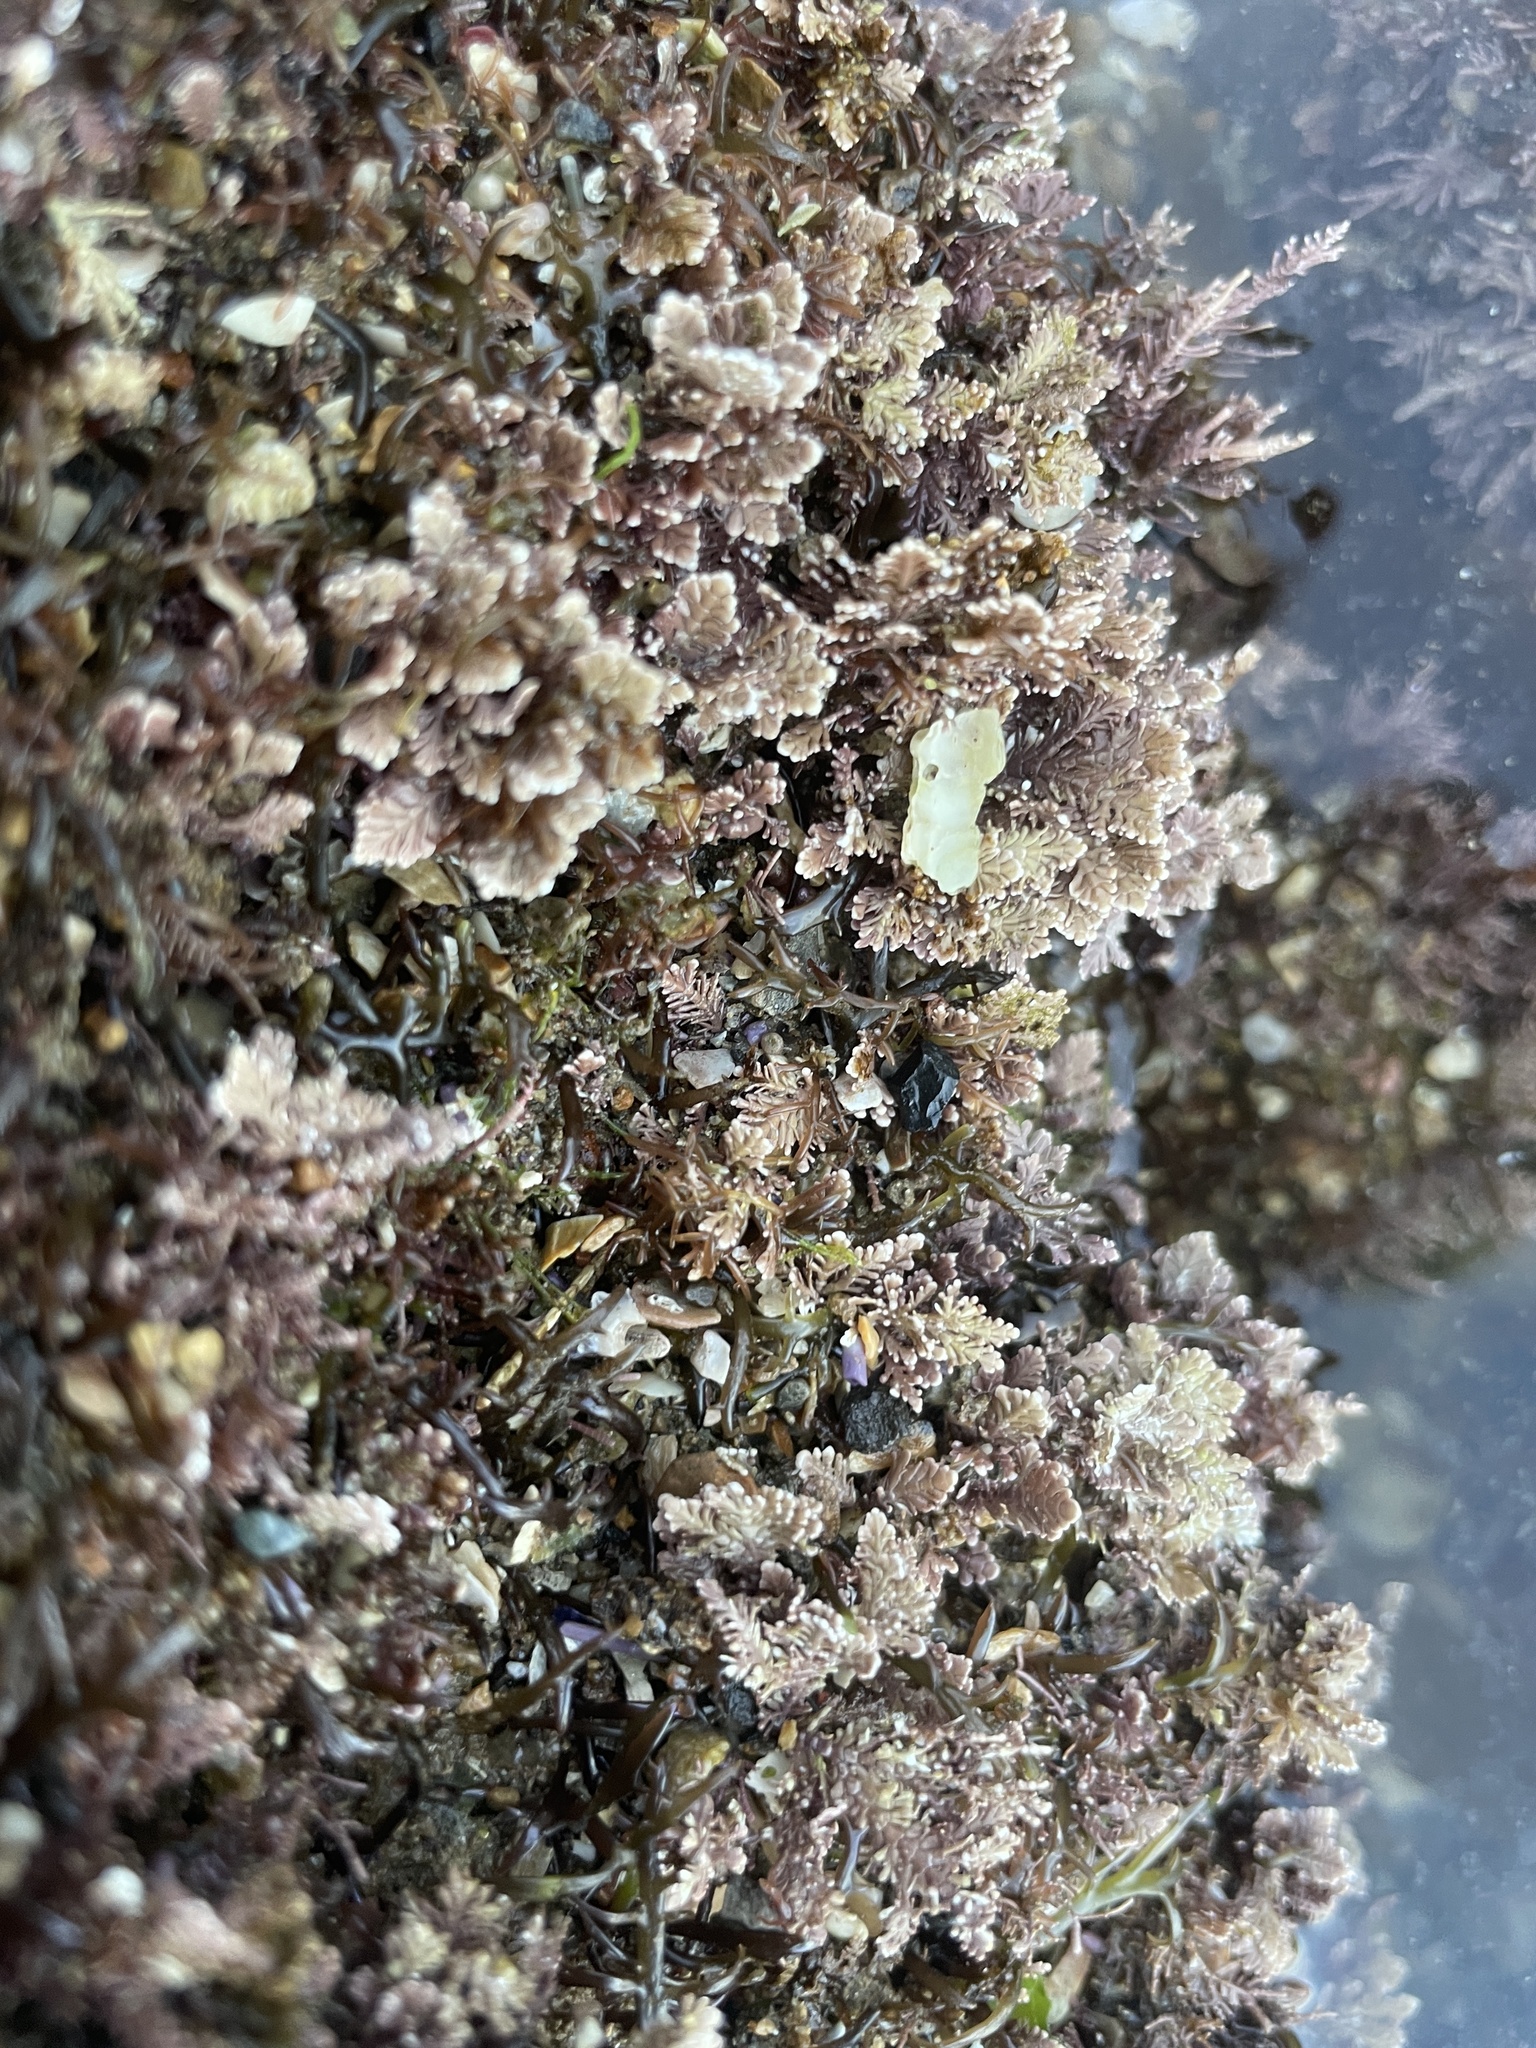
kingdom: Plantae
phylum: Rhodophyta
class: Florideophyceae
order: Corallinales
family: Corallinaceae
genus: Corallina
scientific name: Corallina officinalis
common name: Coral weed
